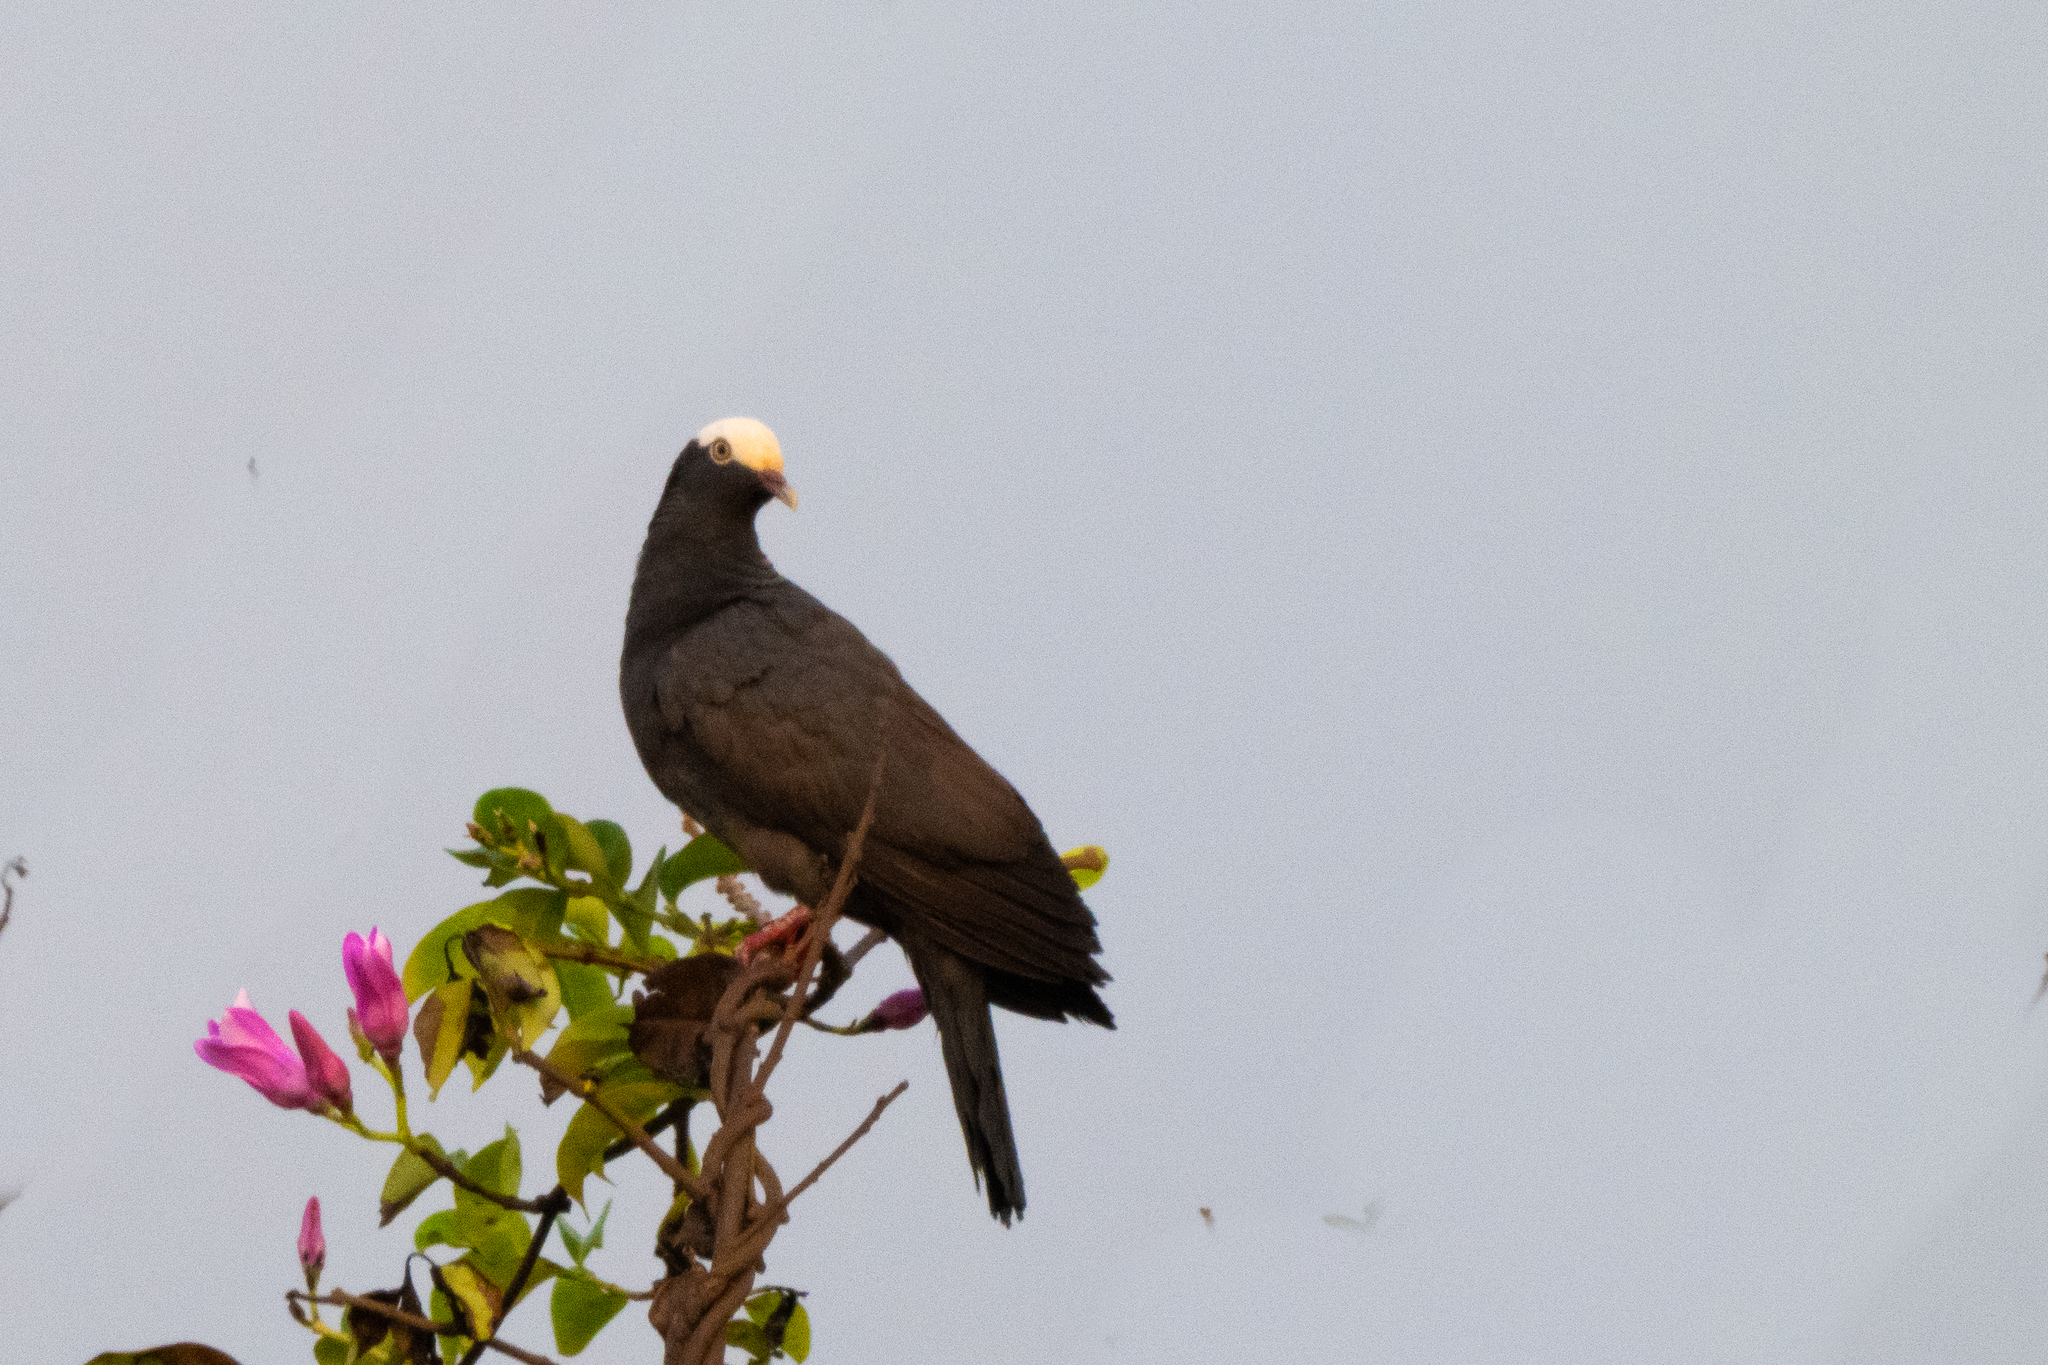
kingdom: Animalia
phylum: Chordata
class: Aves
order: Columbiformes
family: Columbidae
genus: Patagioenas
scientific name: Patagioenas leucocephala
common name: White-crowned pigeon
